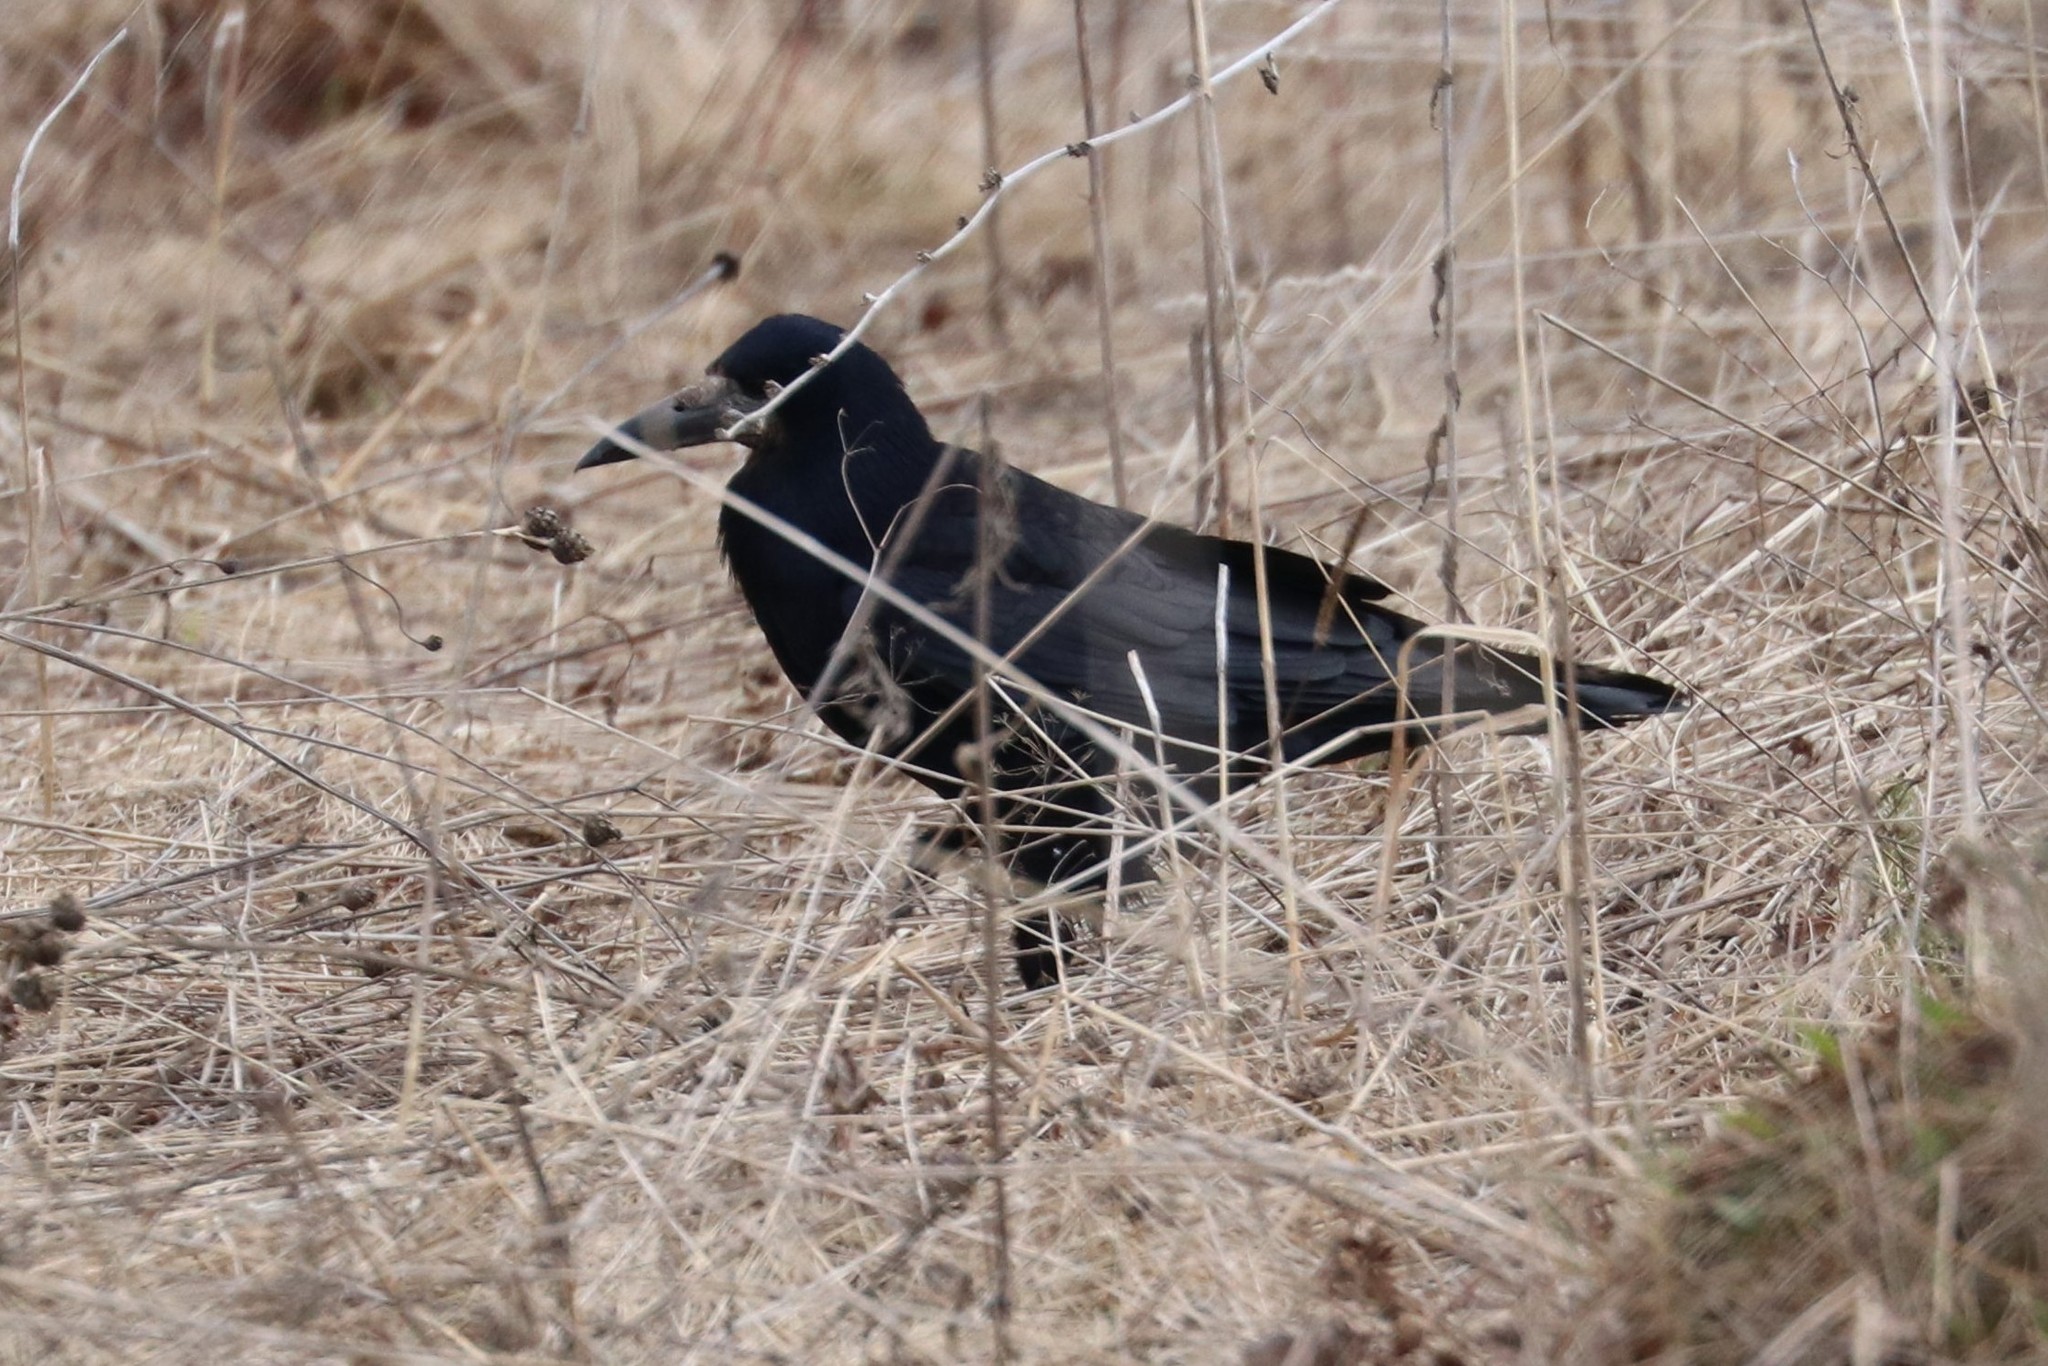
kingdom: Animalia
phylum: Chordata
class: Aves
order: Passeriformes
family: Corvidae
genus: Corvus
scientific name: Corvus frugilegus
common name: Rook
